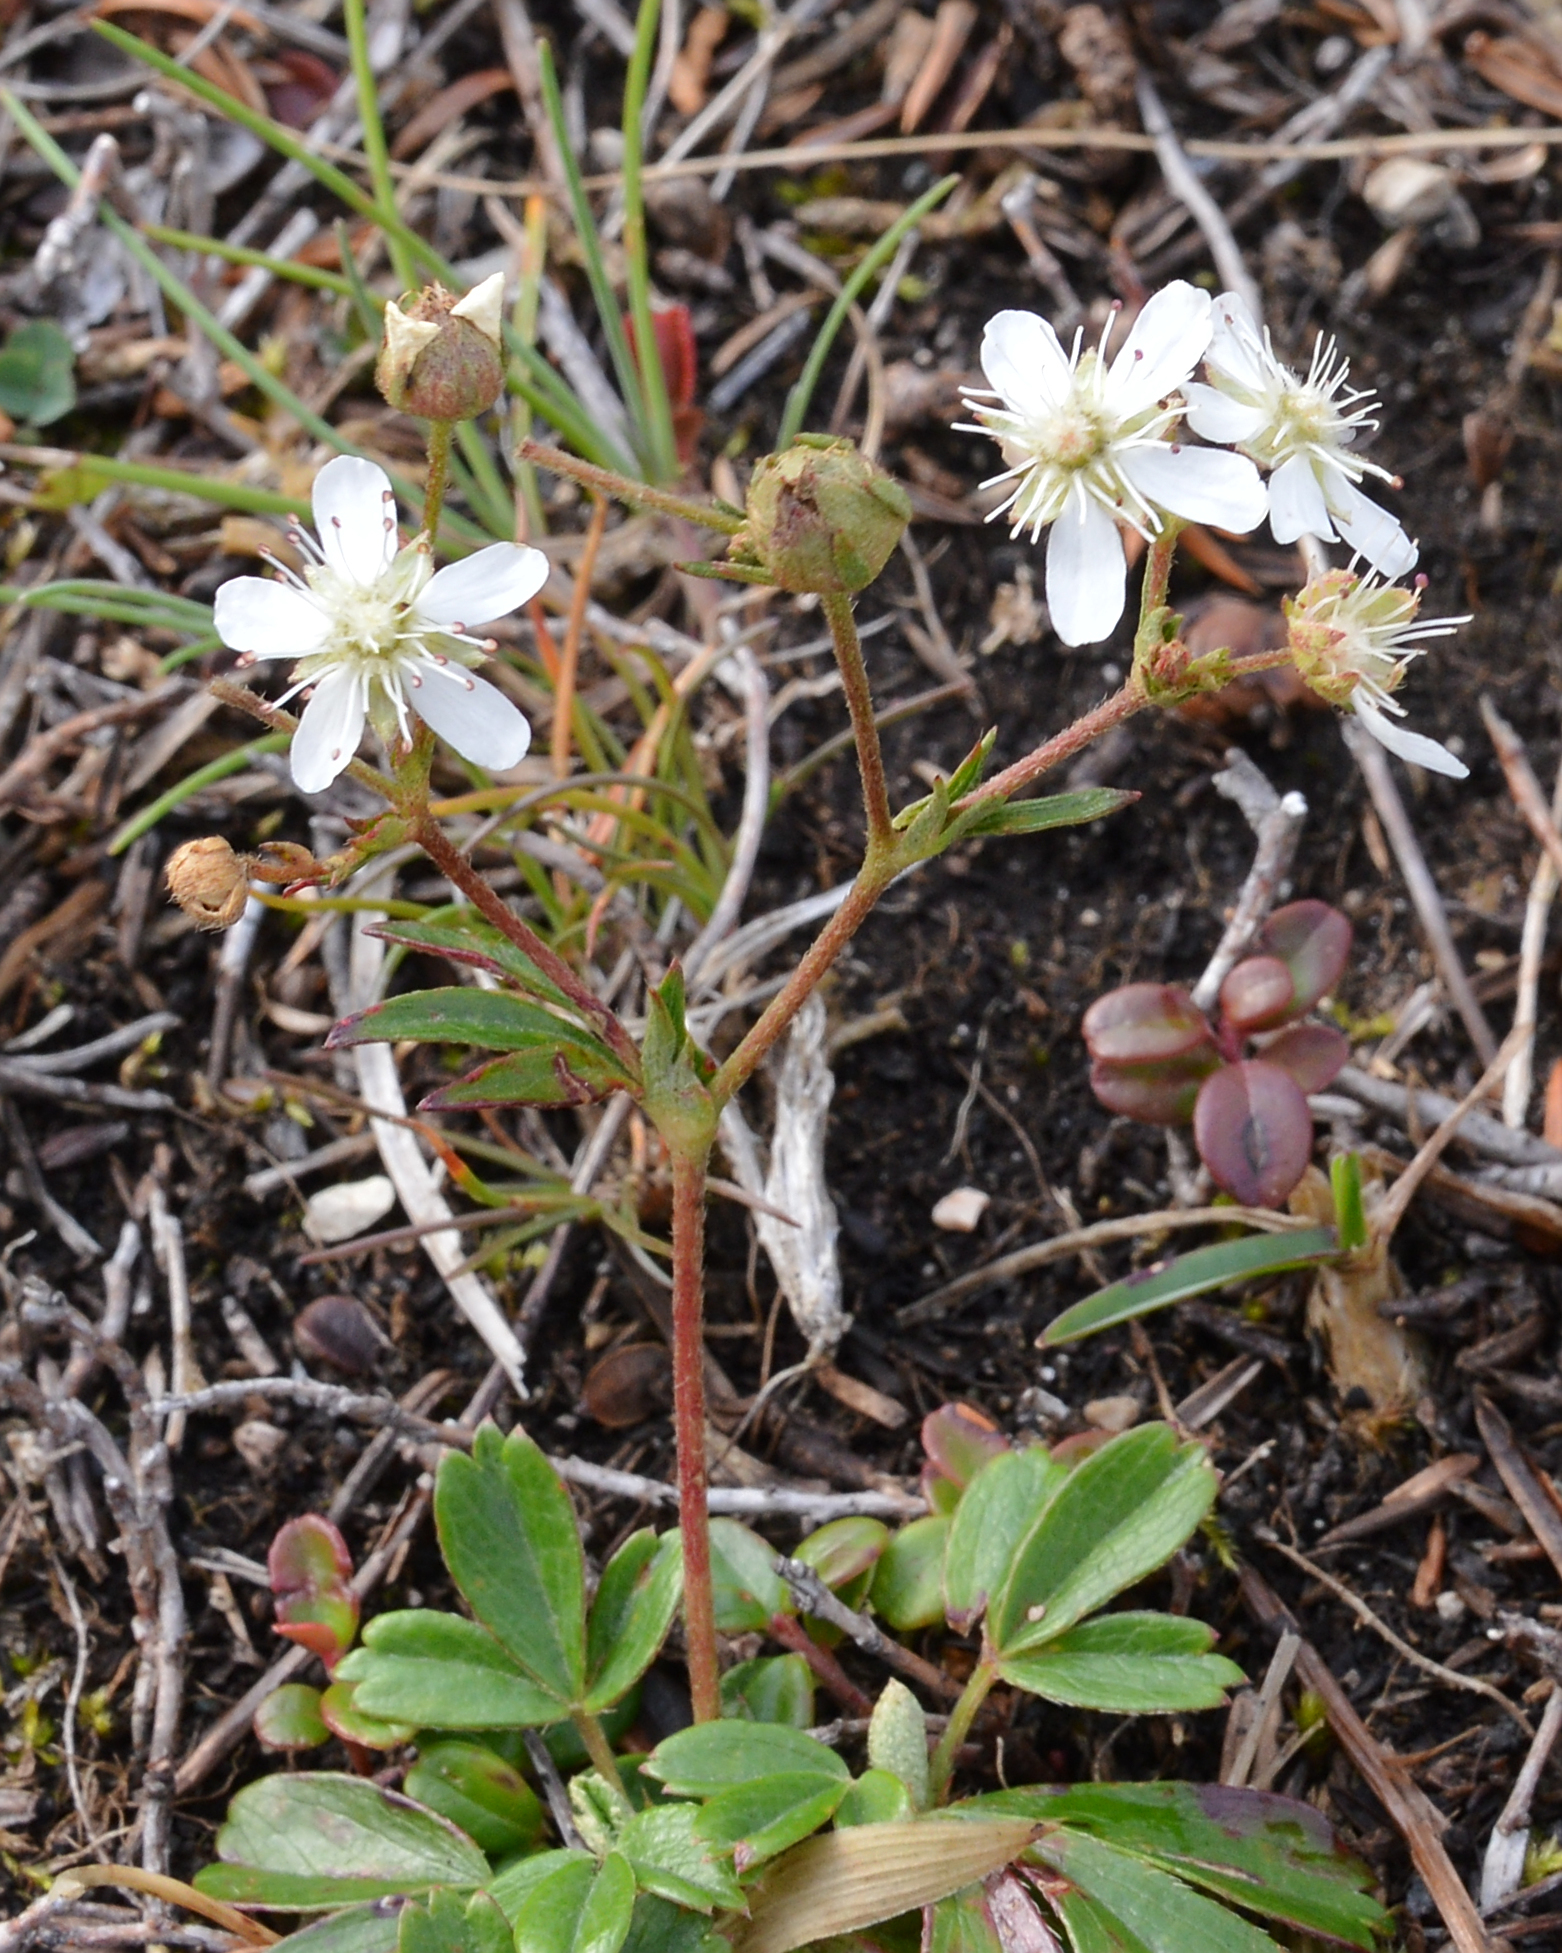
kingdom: Plantae
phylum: Tracheophyta
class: Magnoliopsida
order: Rosales
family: Rosaceae
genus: Sibbaldia
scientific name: Sibbaldia tridentata
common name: Three-toothed cinquefoil
